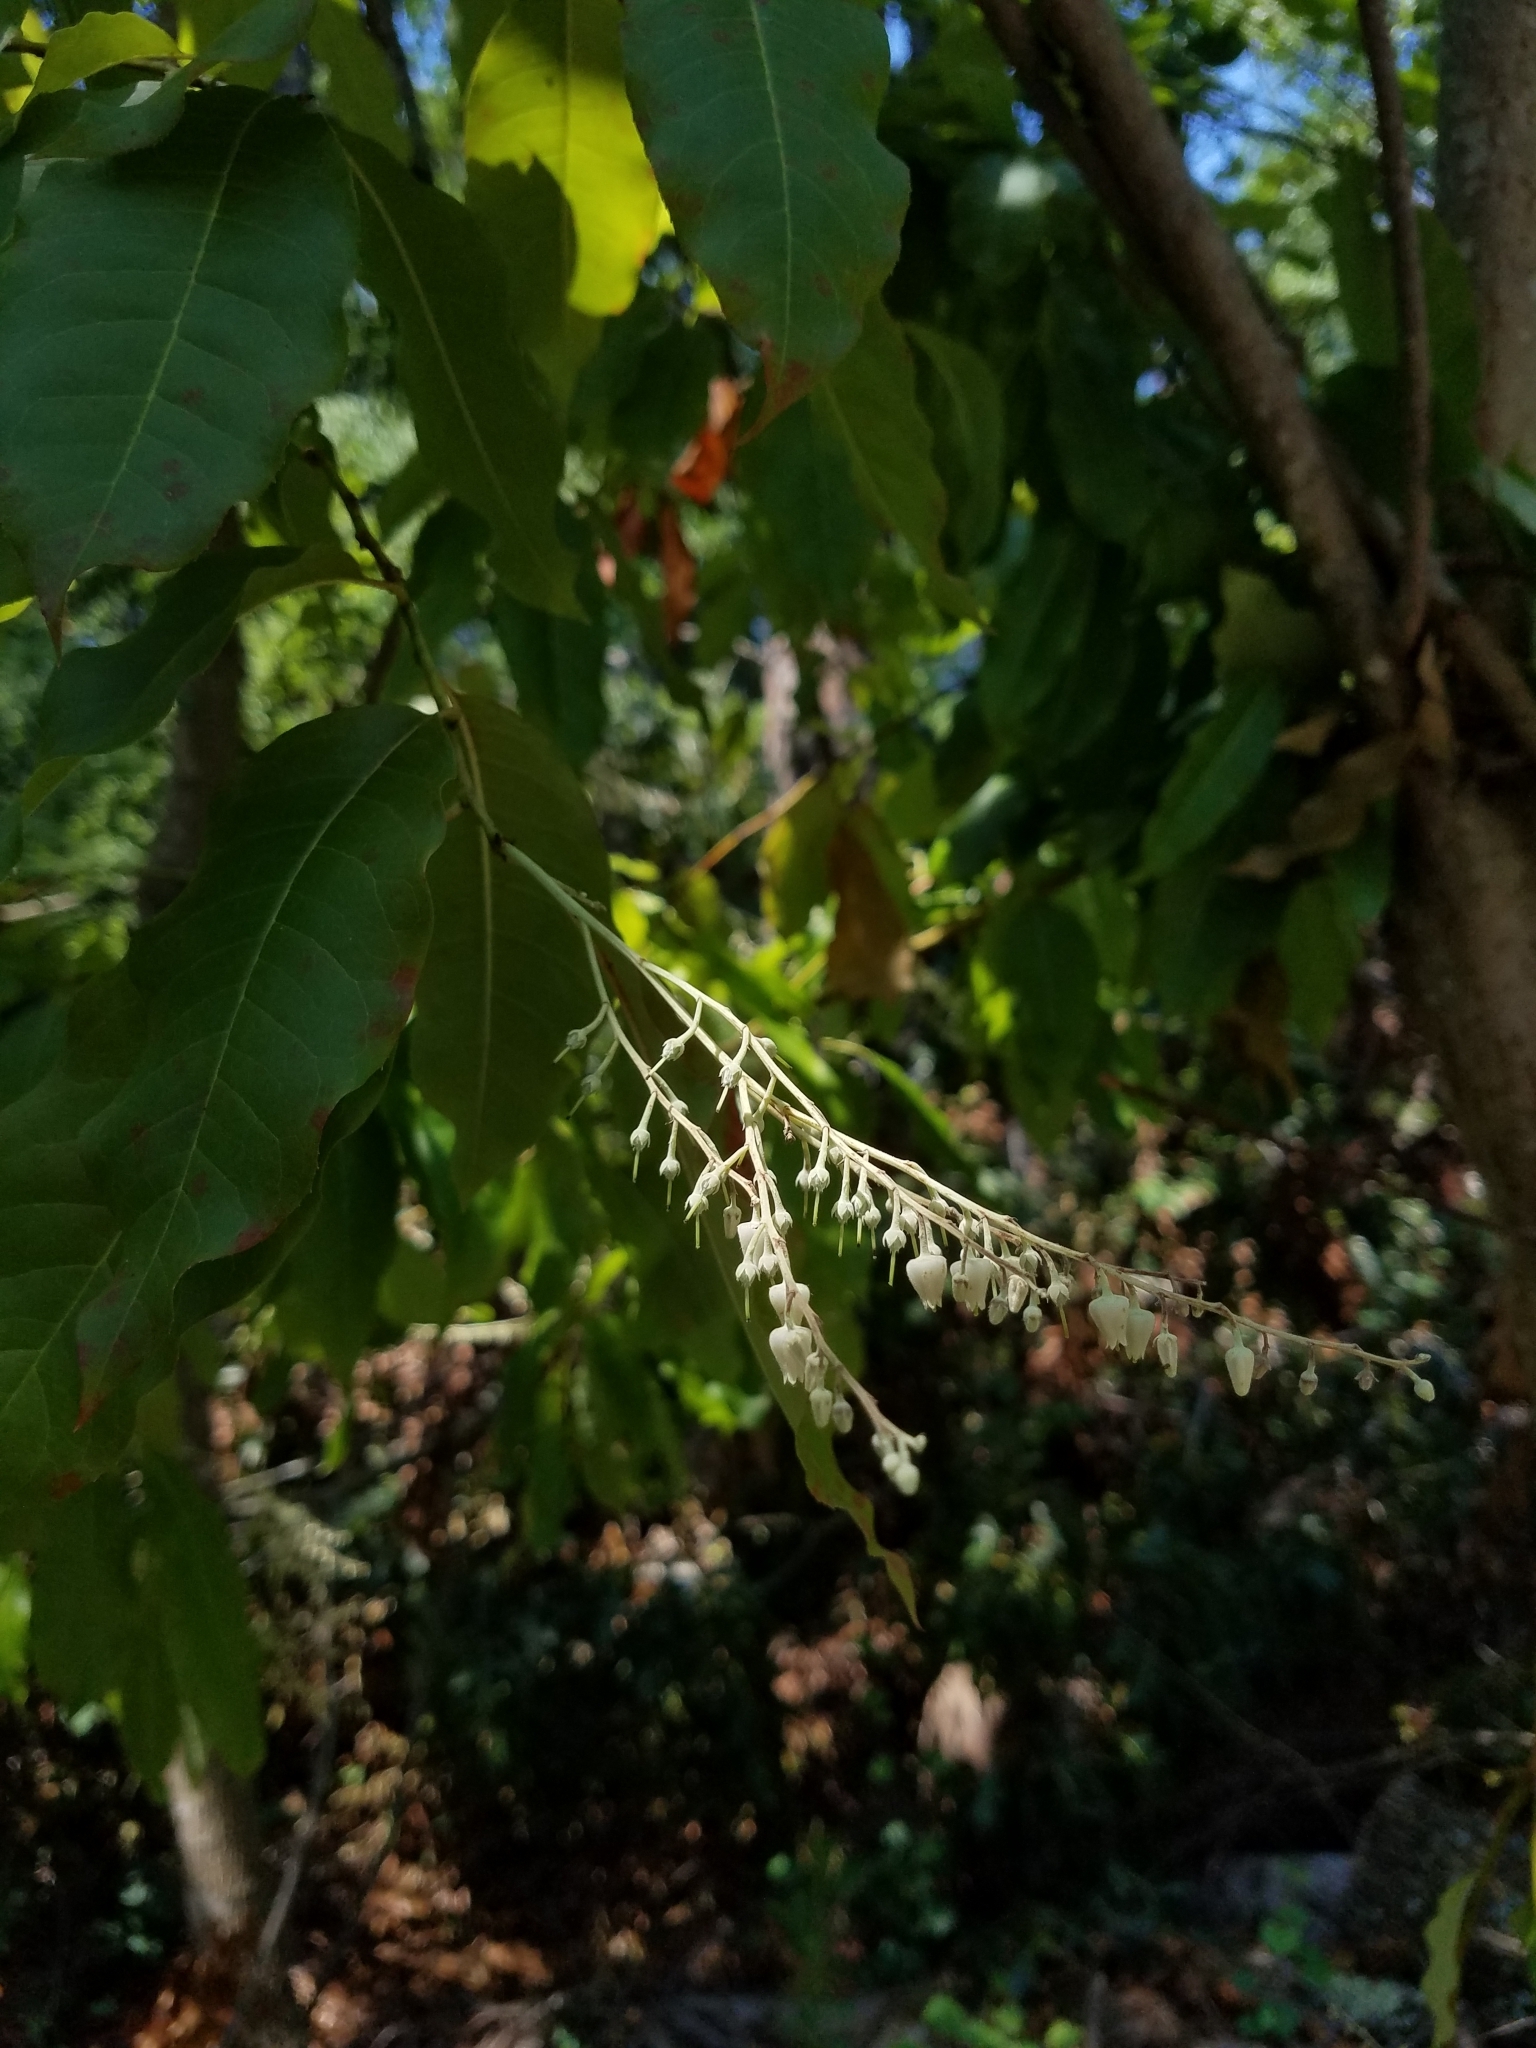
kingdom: Plantae
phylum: Tracheophyta
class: Magnoliopsida
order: Ericales
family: Ericaceae
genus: Oxydendrum
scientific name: Oxydendrum arboreum
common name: Sourwood
